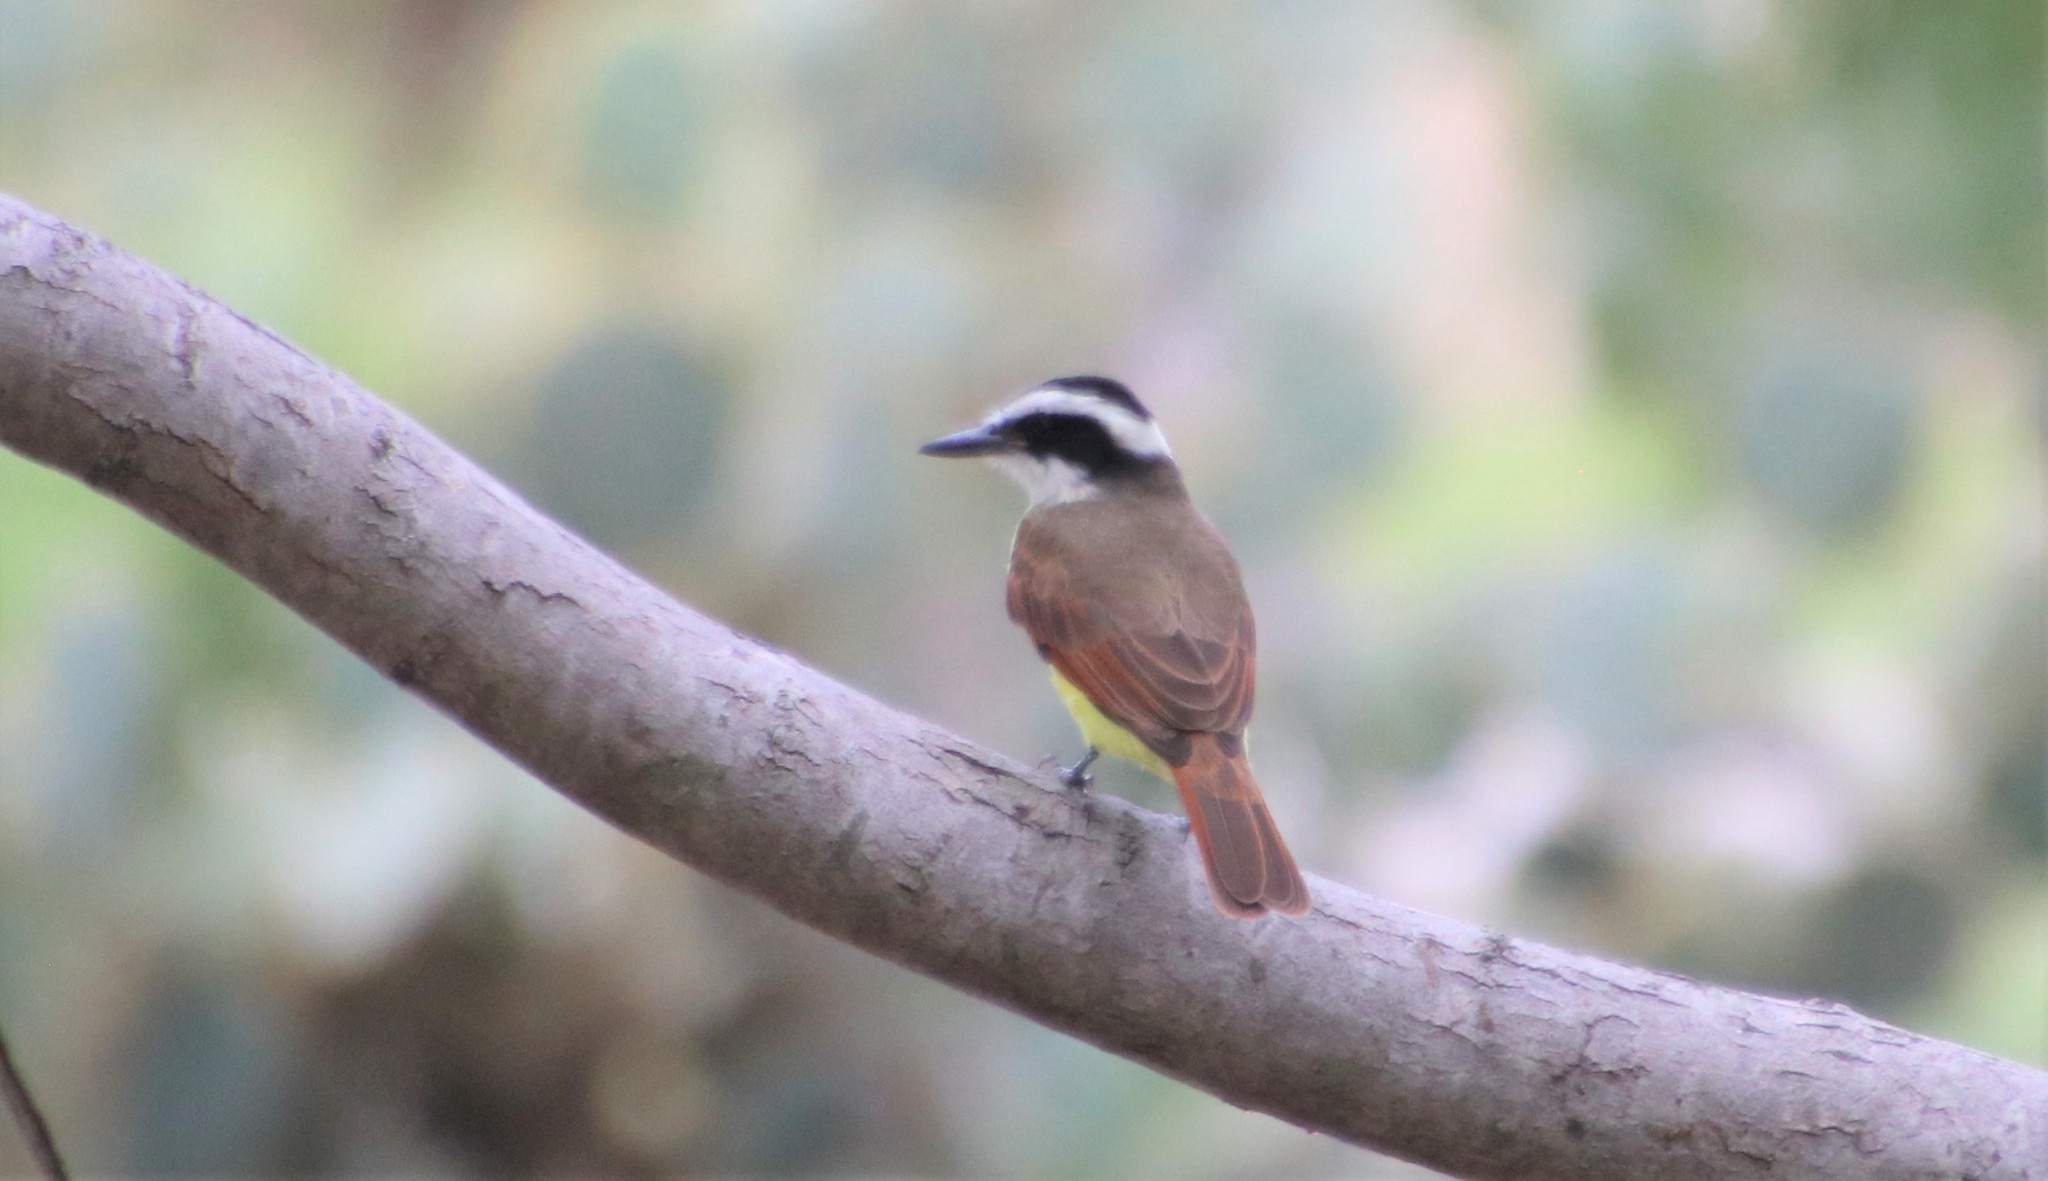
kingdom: Animalia
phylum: Chordata
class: Aves
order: Passeriformes
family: Tyrannidae
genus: Pitangus
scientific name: Pitangus sulphuratus
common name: Great kiskadee
